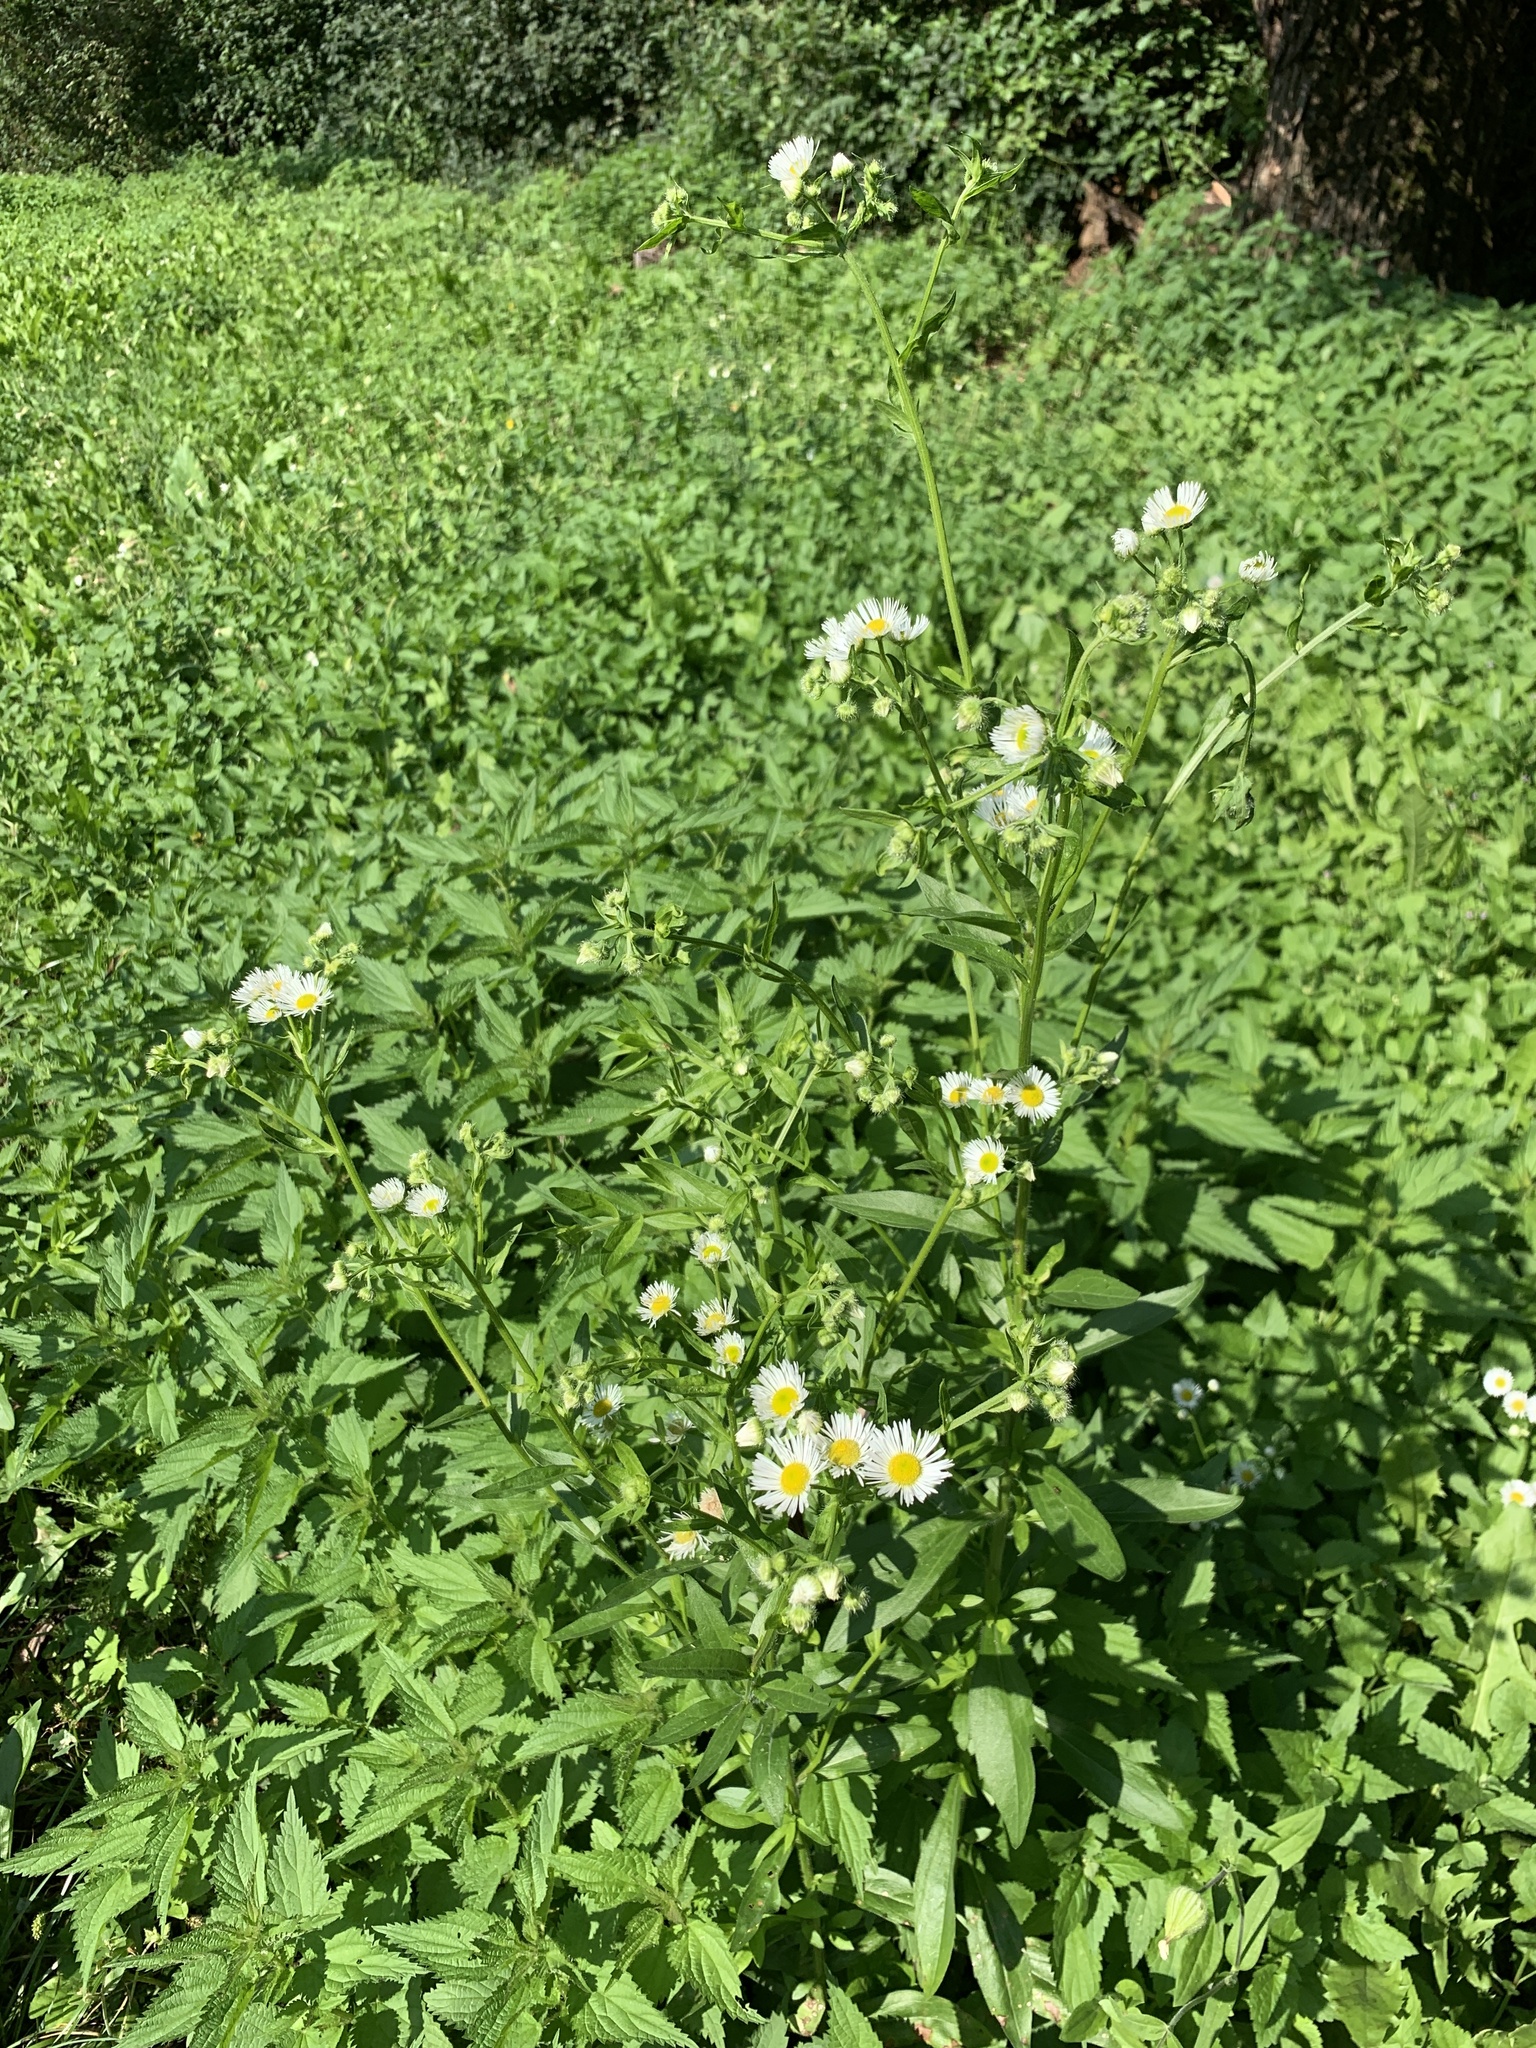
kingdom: Plantae
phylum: Tracheophyta
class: Magnoliopsida
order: Asterales
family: Asteraceae
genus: Erigeron
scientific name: Erigeron annuus
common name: Tall fleabane
